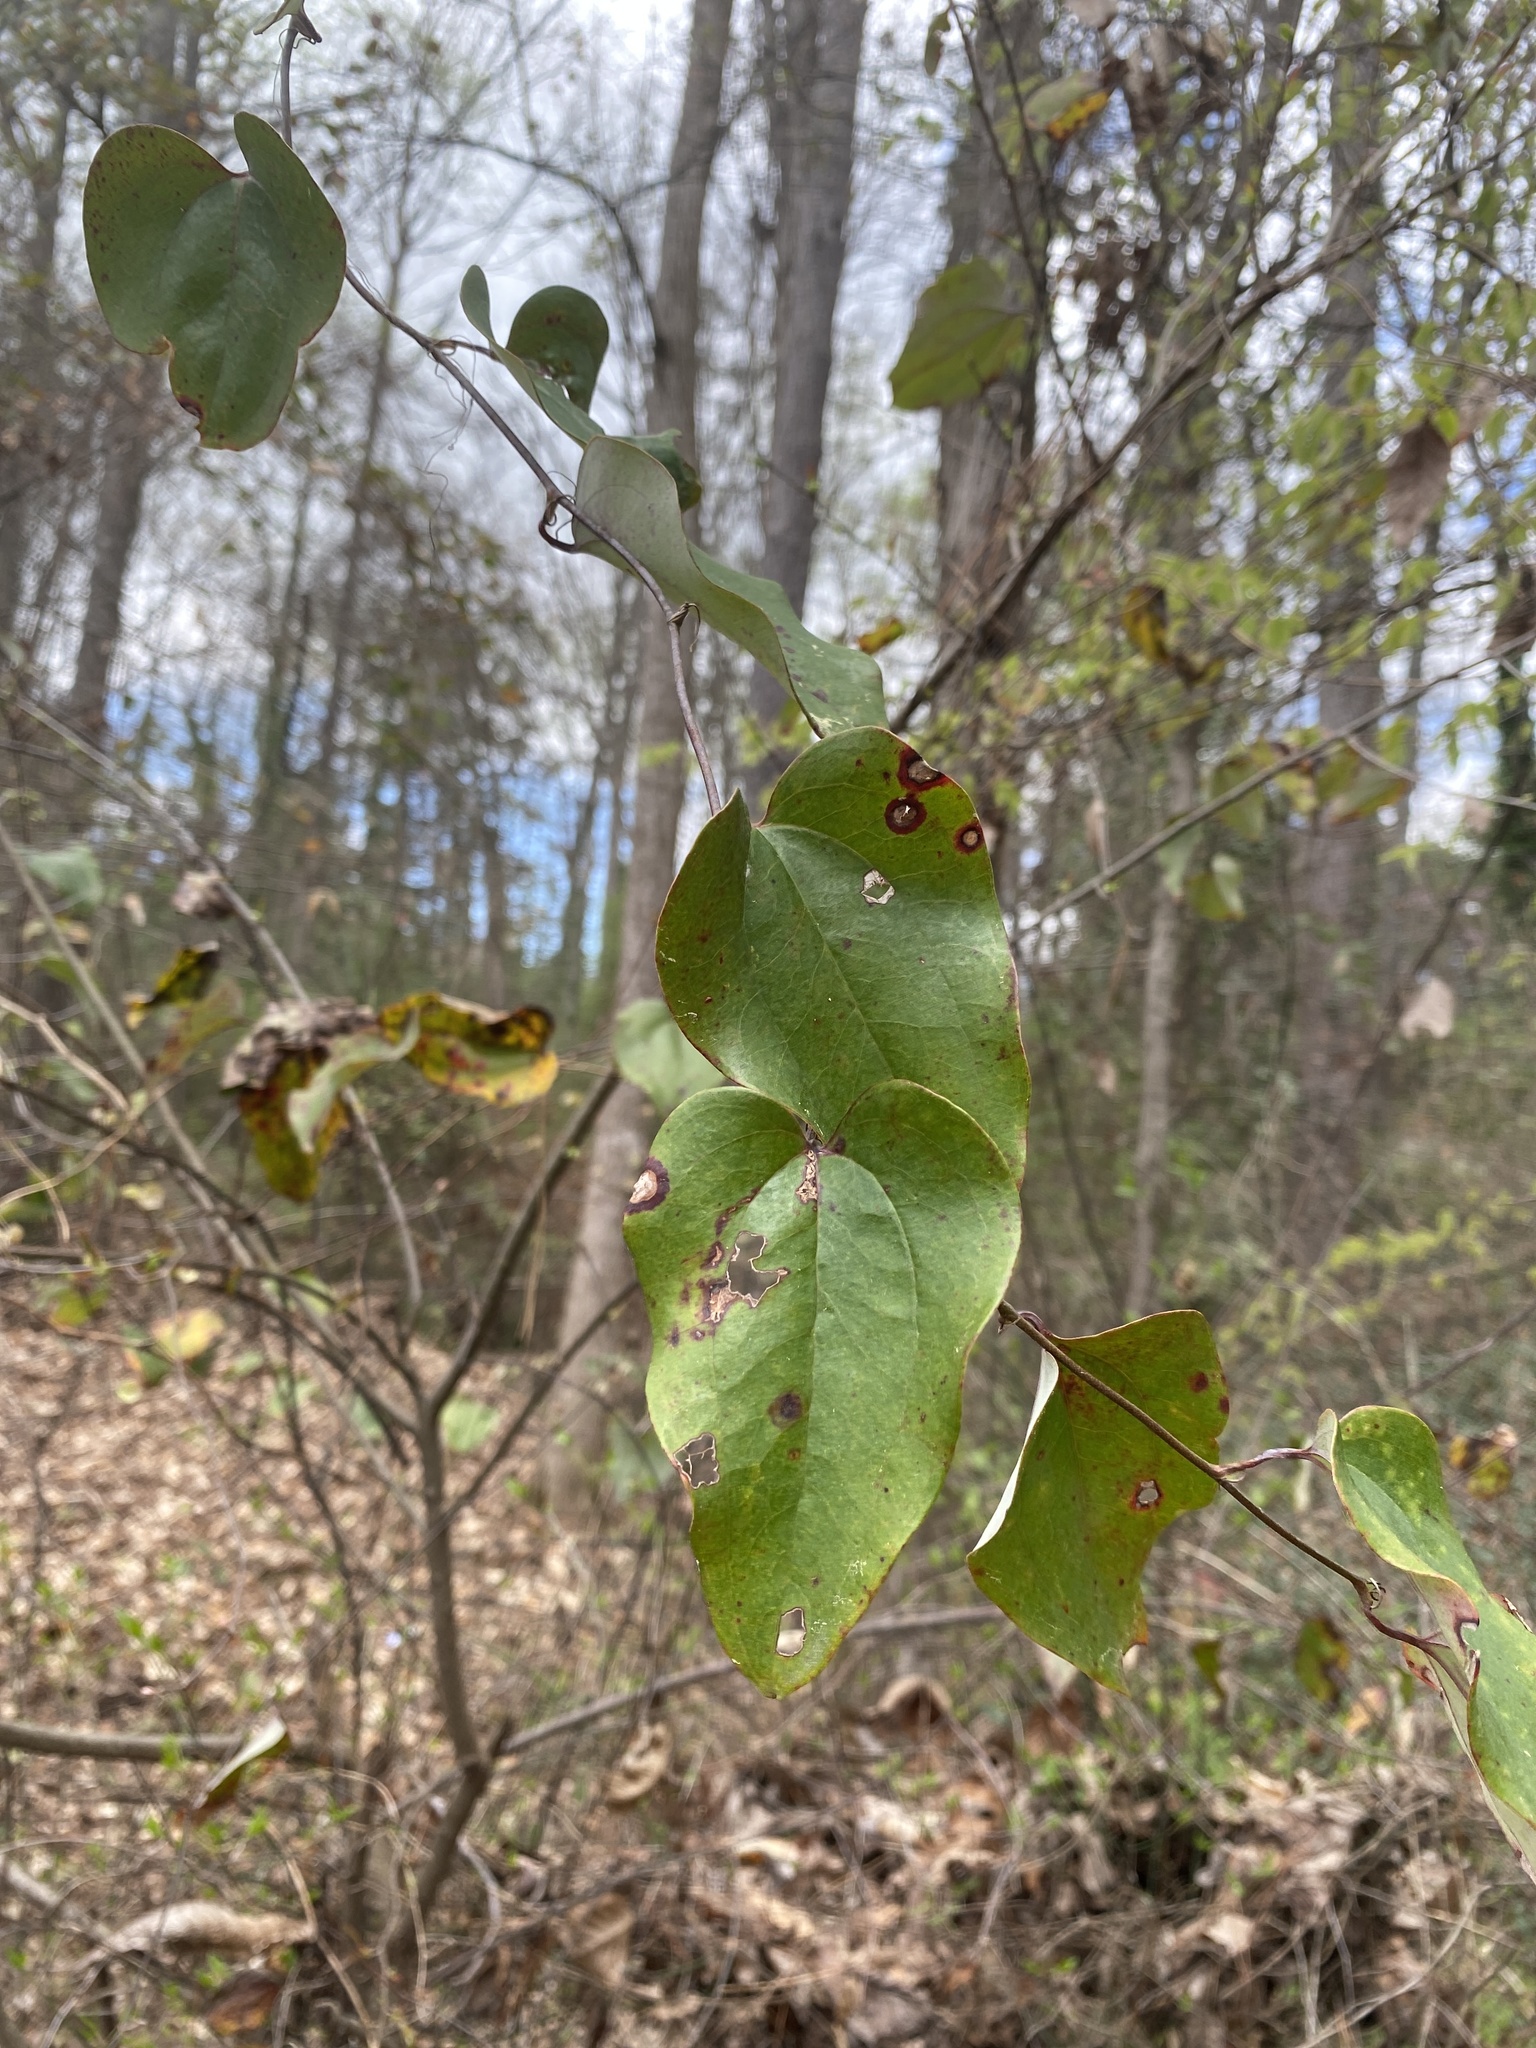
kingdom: Plantae
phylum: Tracheophyta
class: Liliopsida
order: Liliales
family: Smilacaceae
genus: Smilax
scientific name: Smilax glauca
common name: Cat greenbrier
